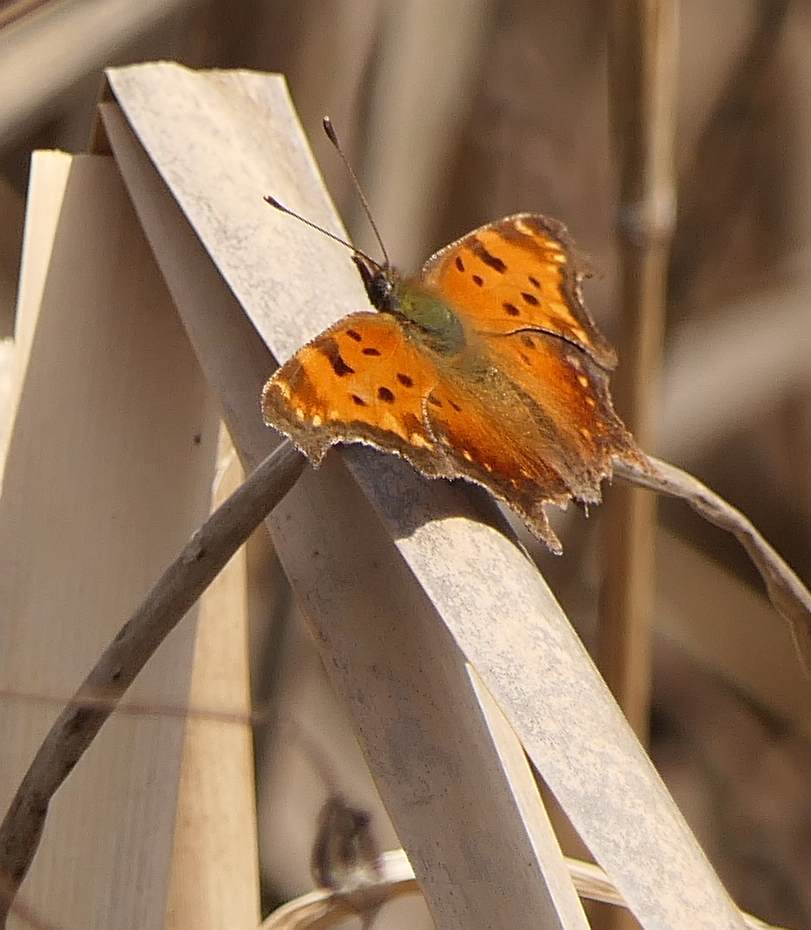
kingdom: Animalia
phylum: Arthropoda
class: Insecta
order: Lepidoptera
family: Nymphalidae
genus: Polygonia
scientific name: Polygonia progne
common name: Gray comma
